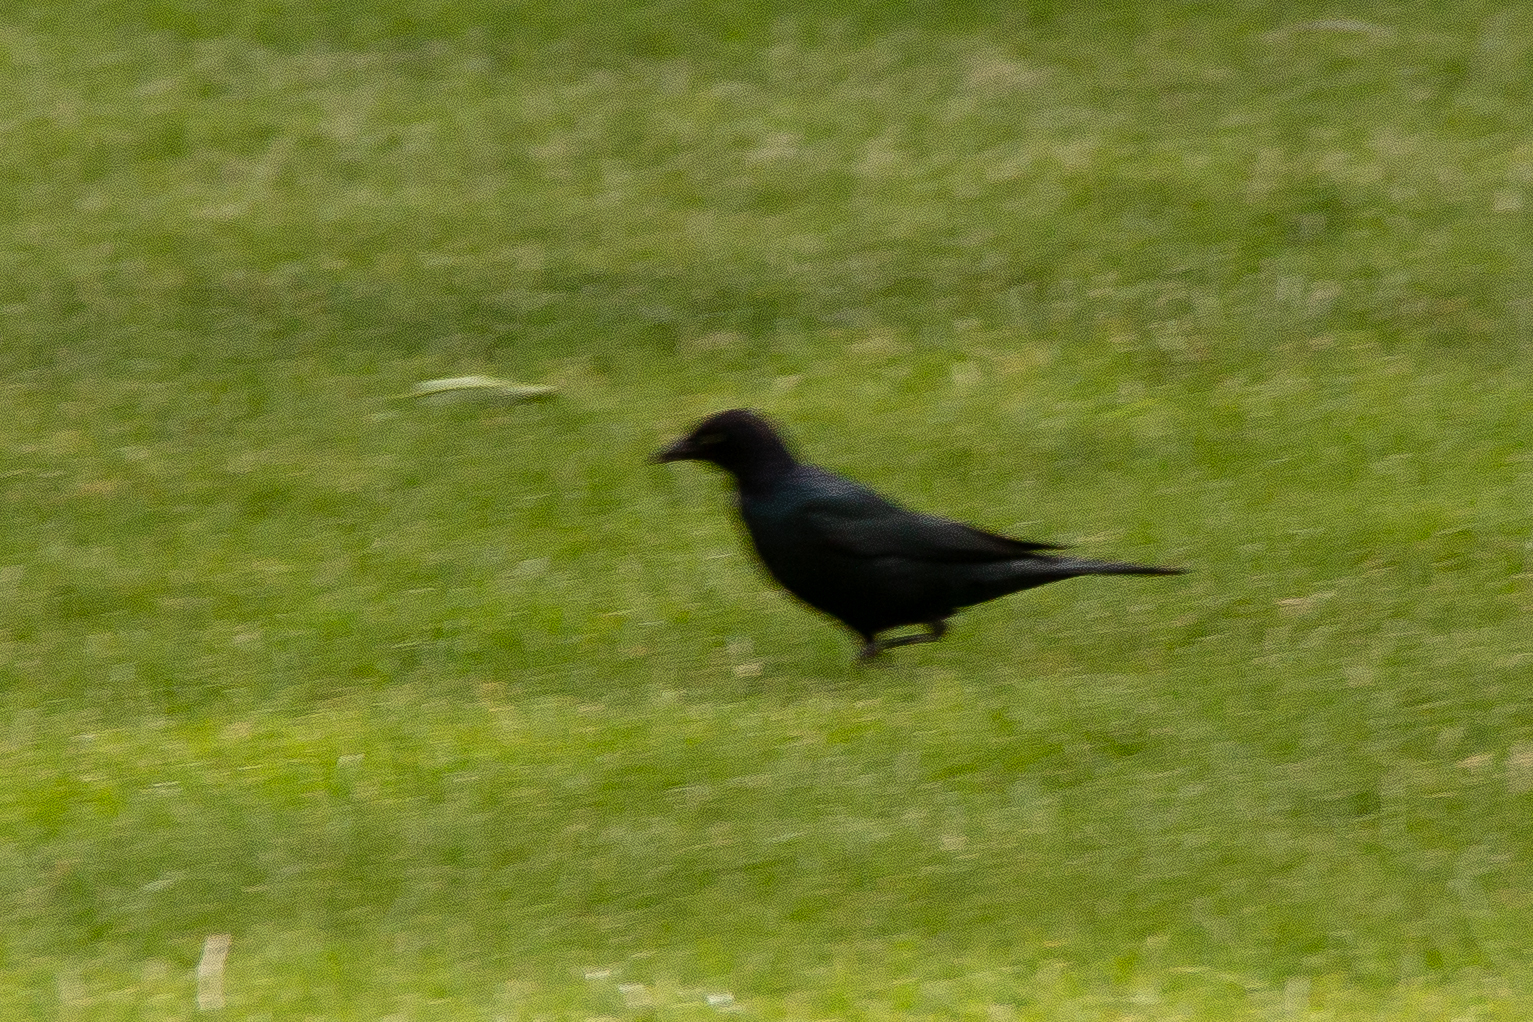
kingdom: Animalia
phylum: Chordata
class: Aves
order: Passeriformes
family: Icteridae
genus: Euphagus
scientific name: Euphagus cyanocephalus
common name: Brewer's blackbird
